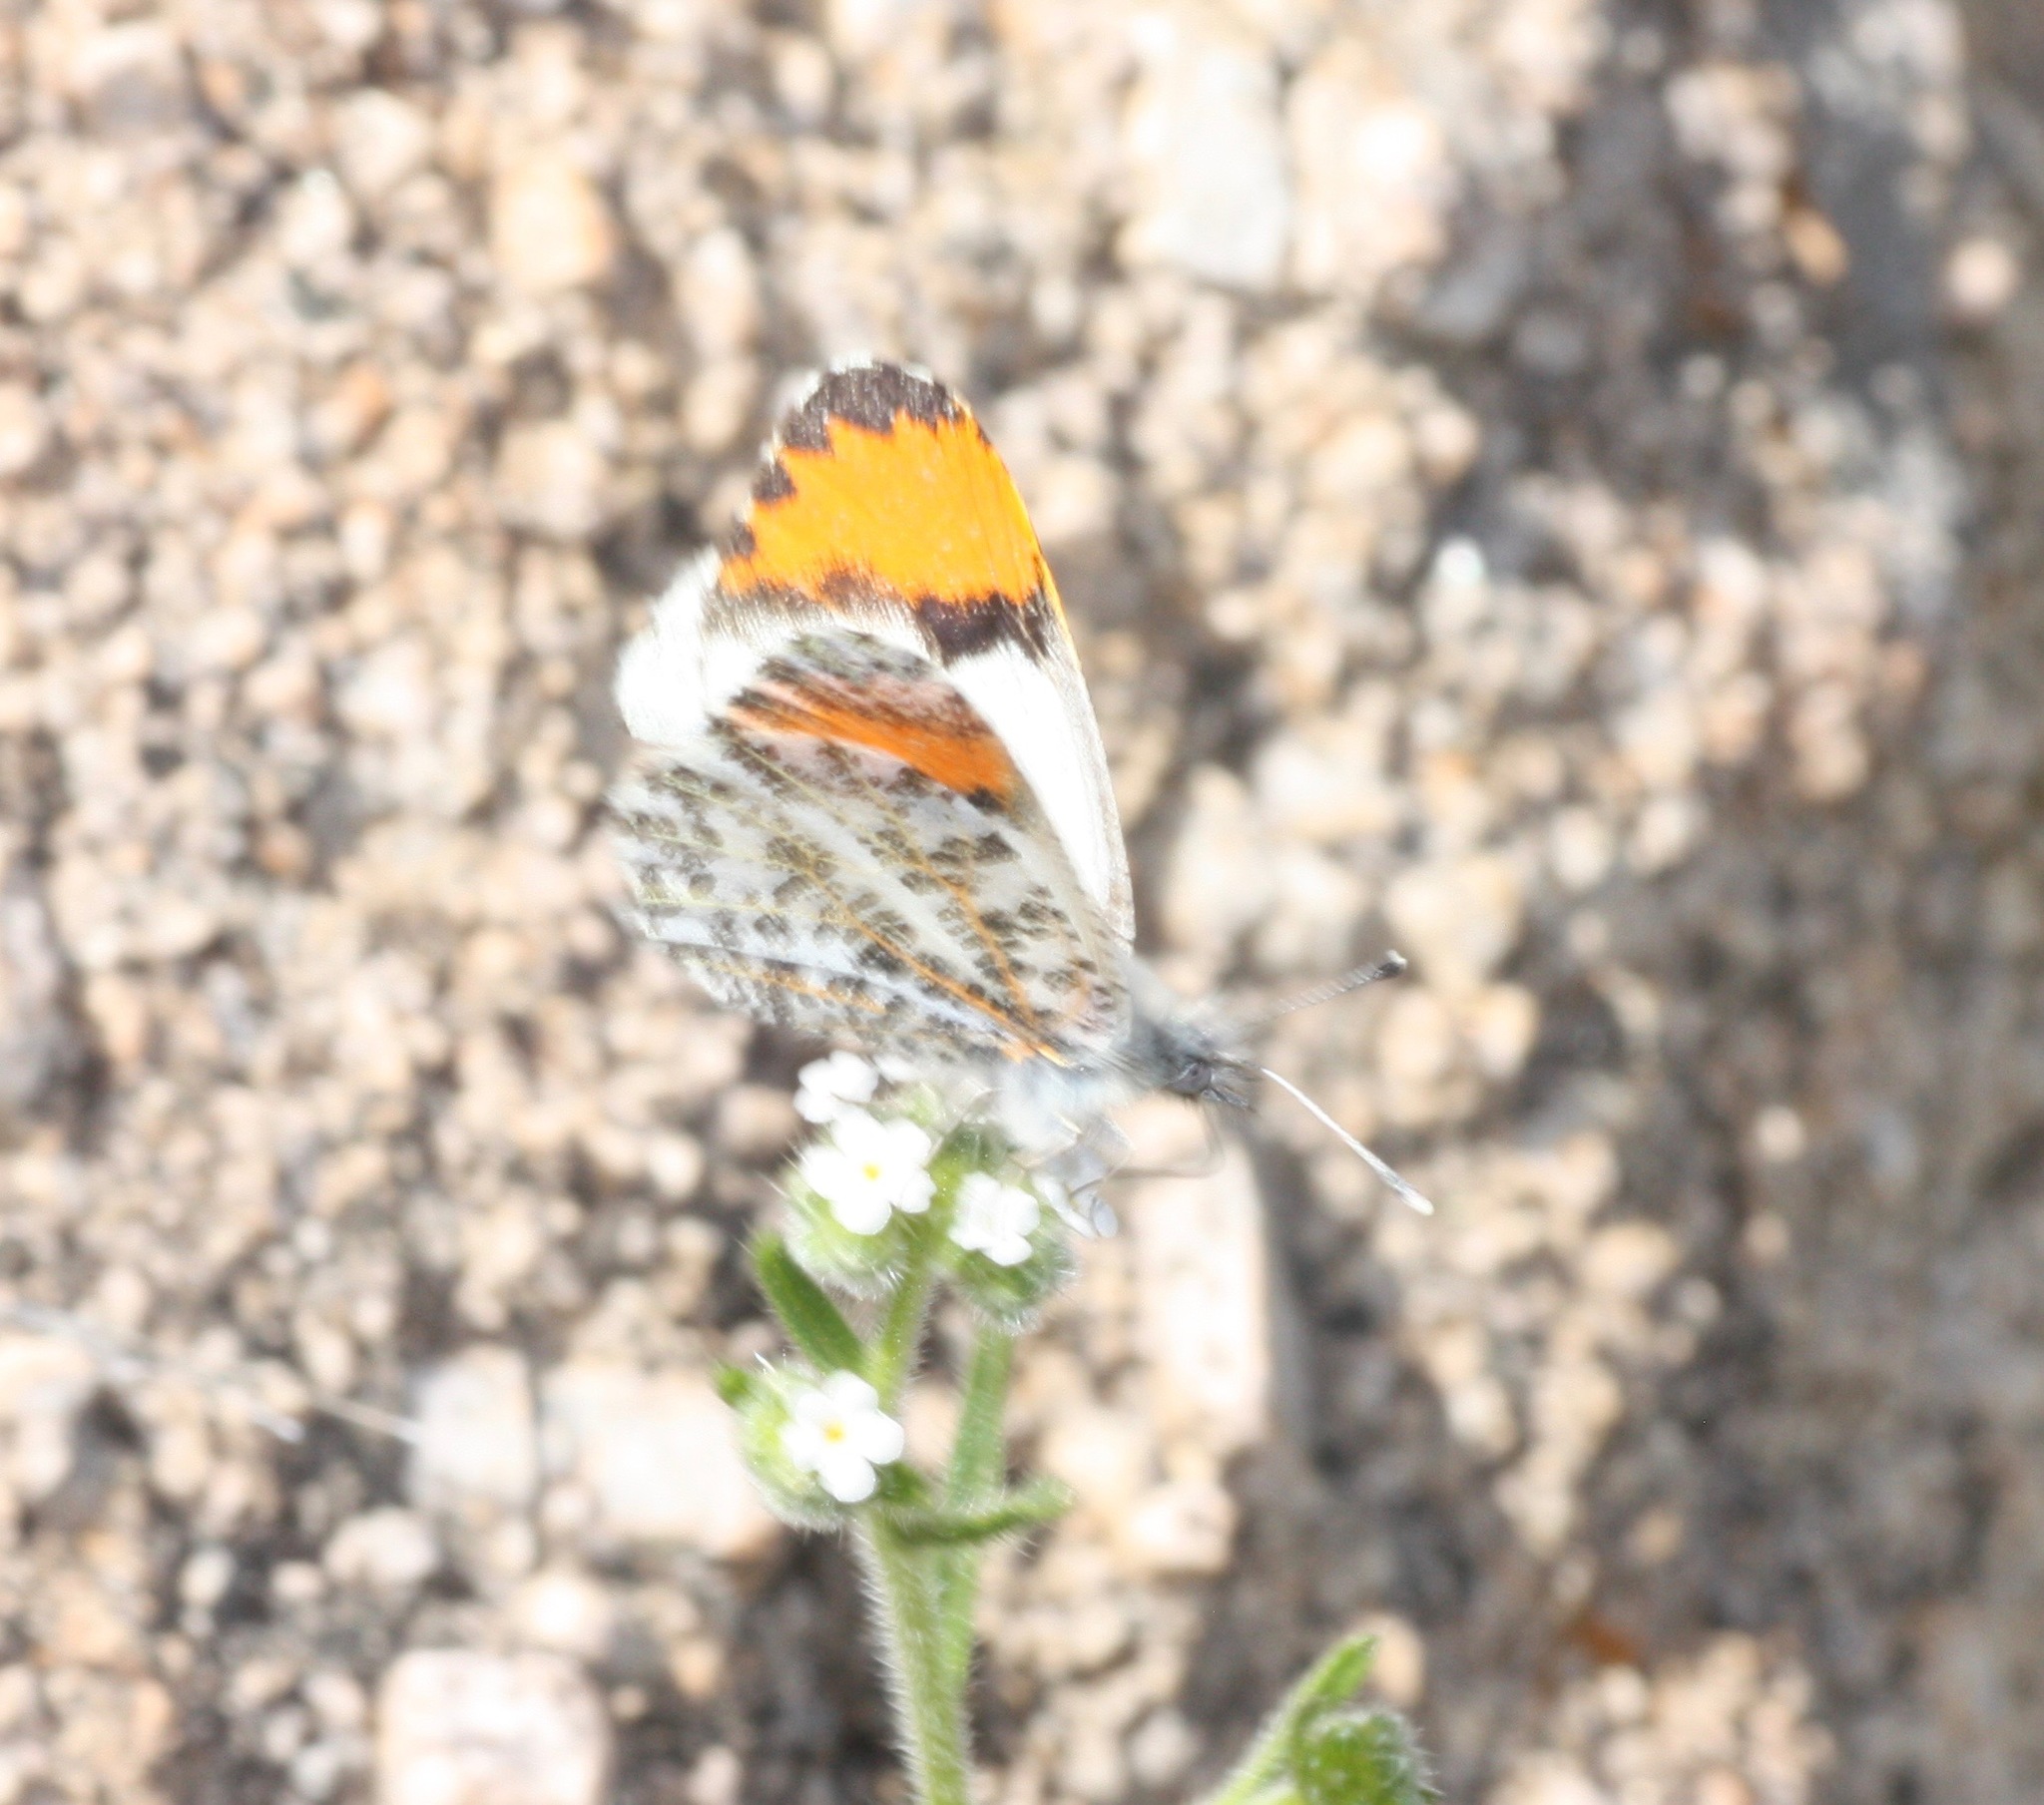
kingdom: Animalia
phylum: Arthropoda
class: Insecta
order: Lepidoptera
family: Pieridae
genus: Anthocharis
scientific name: Anthocharis thoosa
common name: Southwestern orangetip
